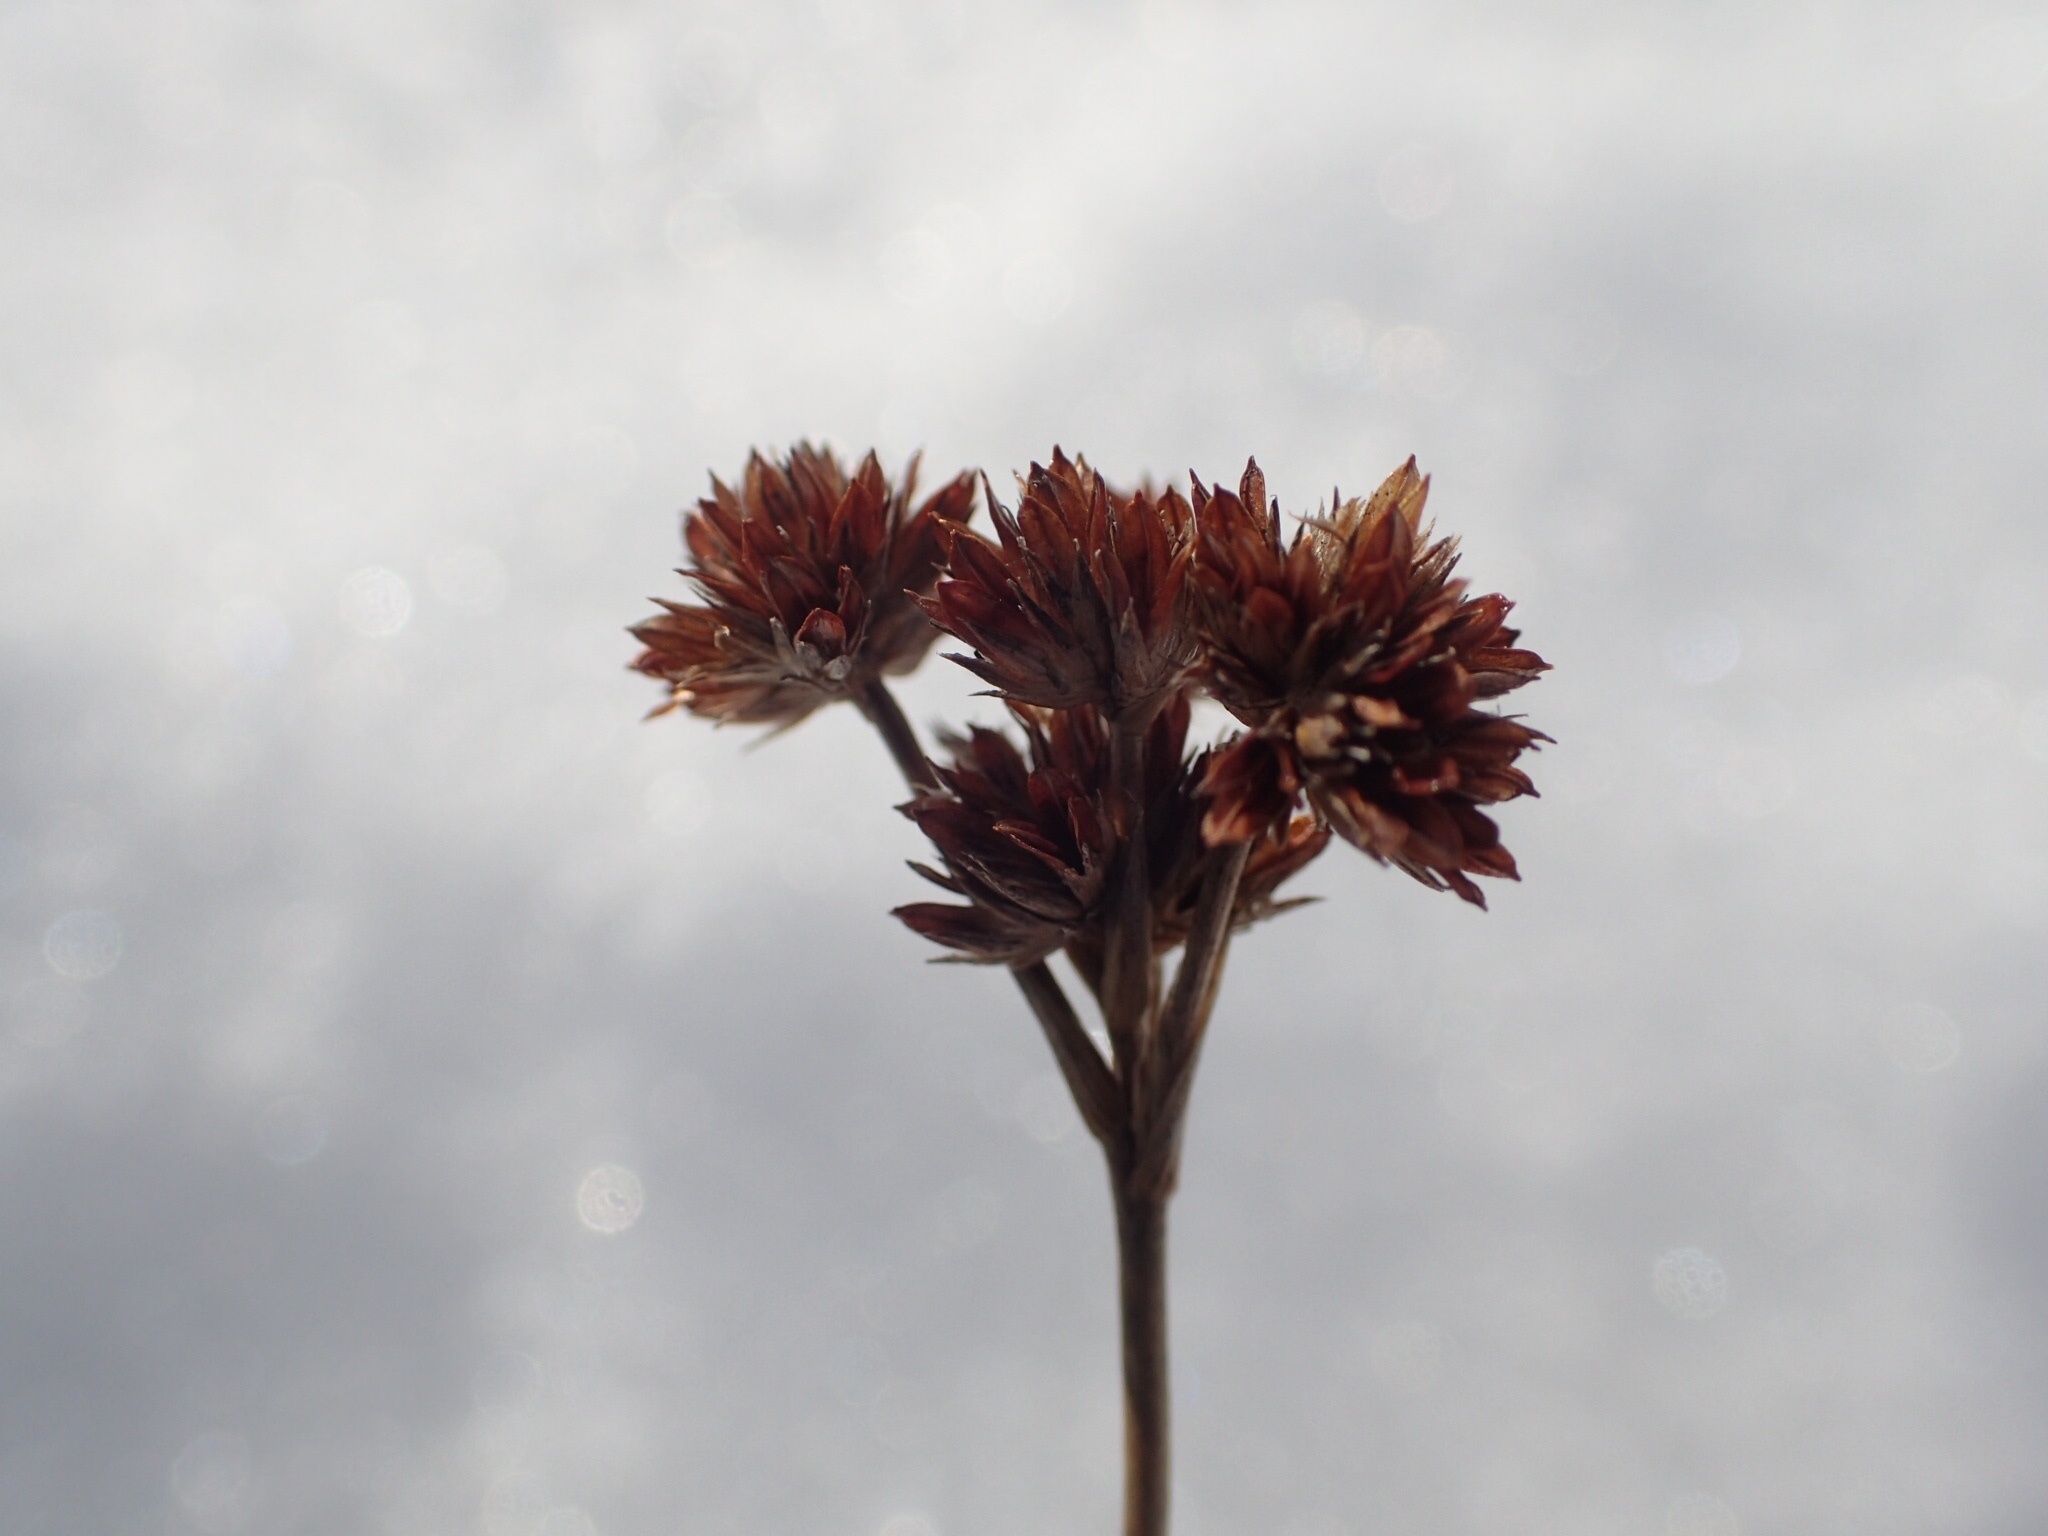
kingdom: Plantae
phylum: Tracheophyta
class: Liliopsida
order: Poales
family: Juncaceae
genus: Juncus
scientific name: Juncus canadensis
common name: Canada rush
